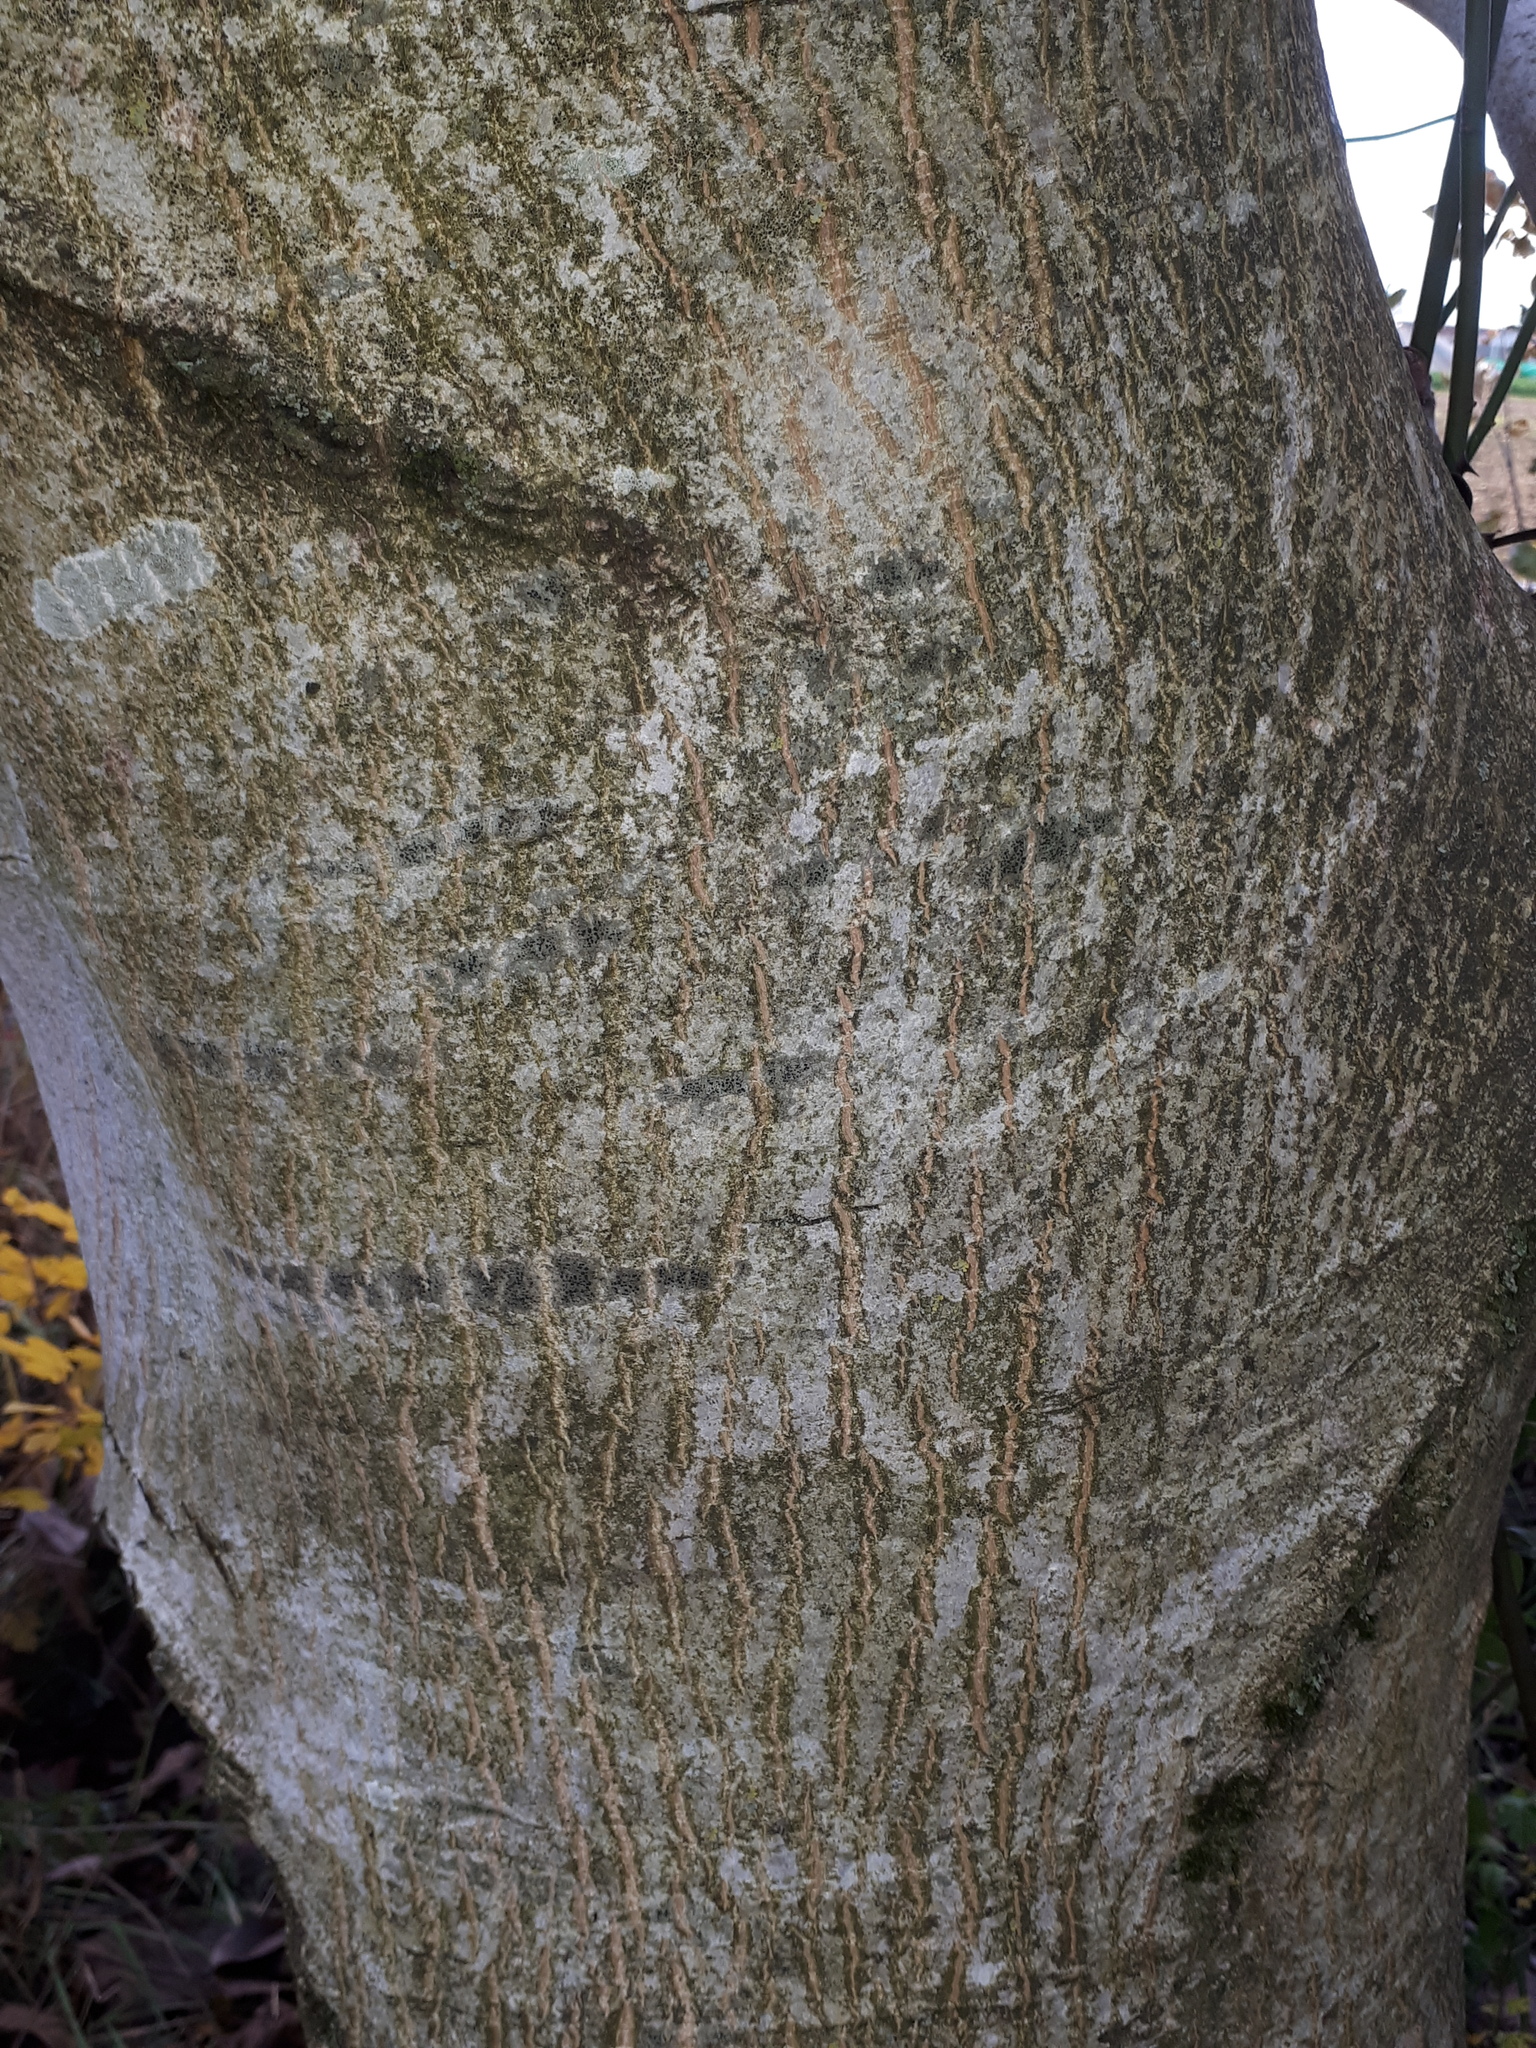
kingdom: Plantae
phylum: Tracheophyta
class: Magnoliopsida
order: Fagales
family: Juglandaceae
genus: Juglans
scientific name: Juglans regia
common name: Walnut
